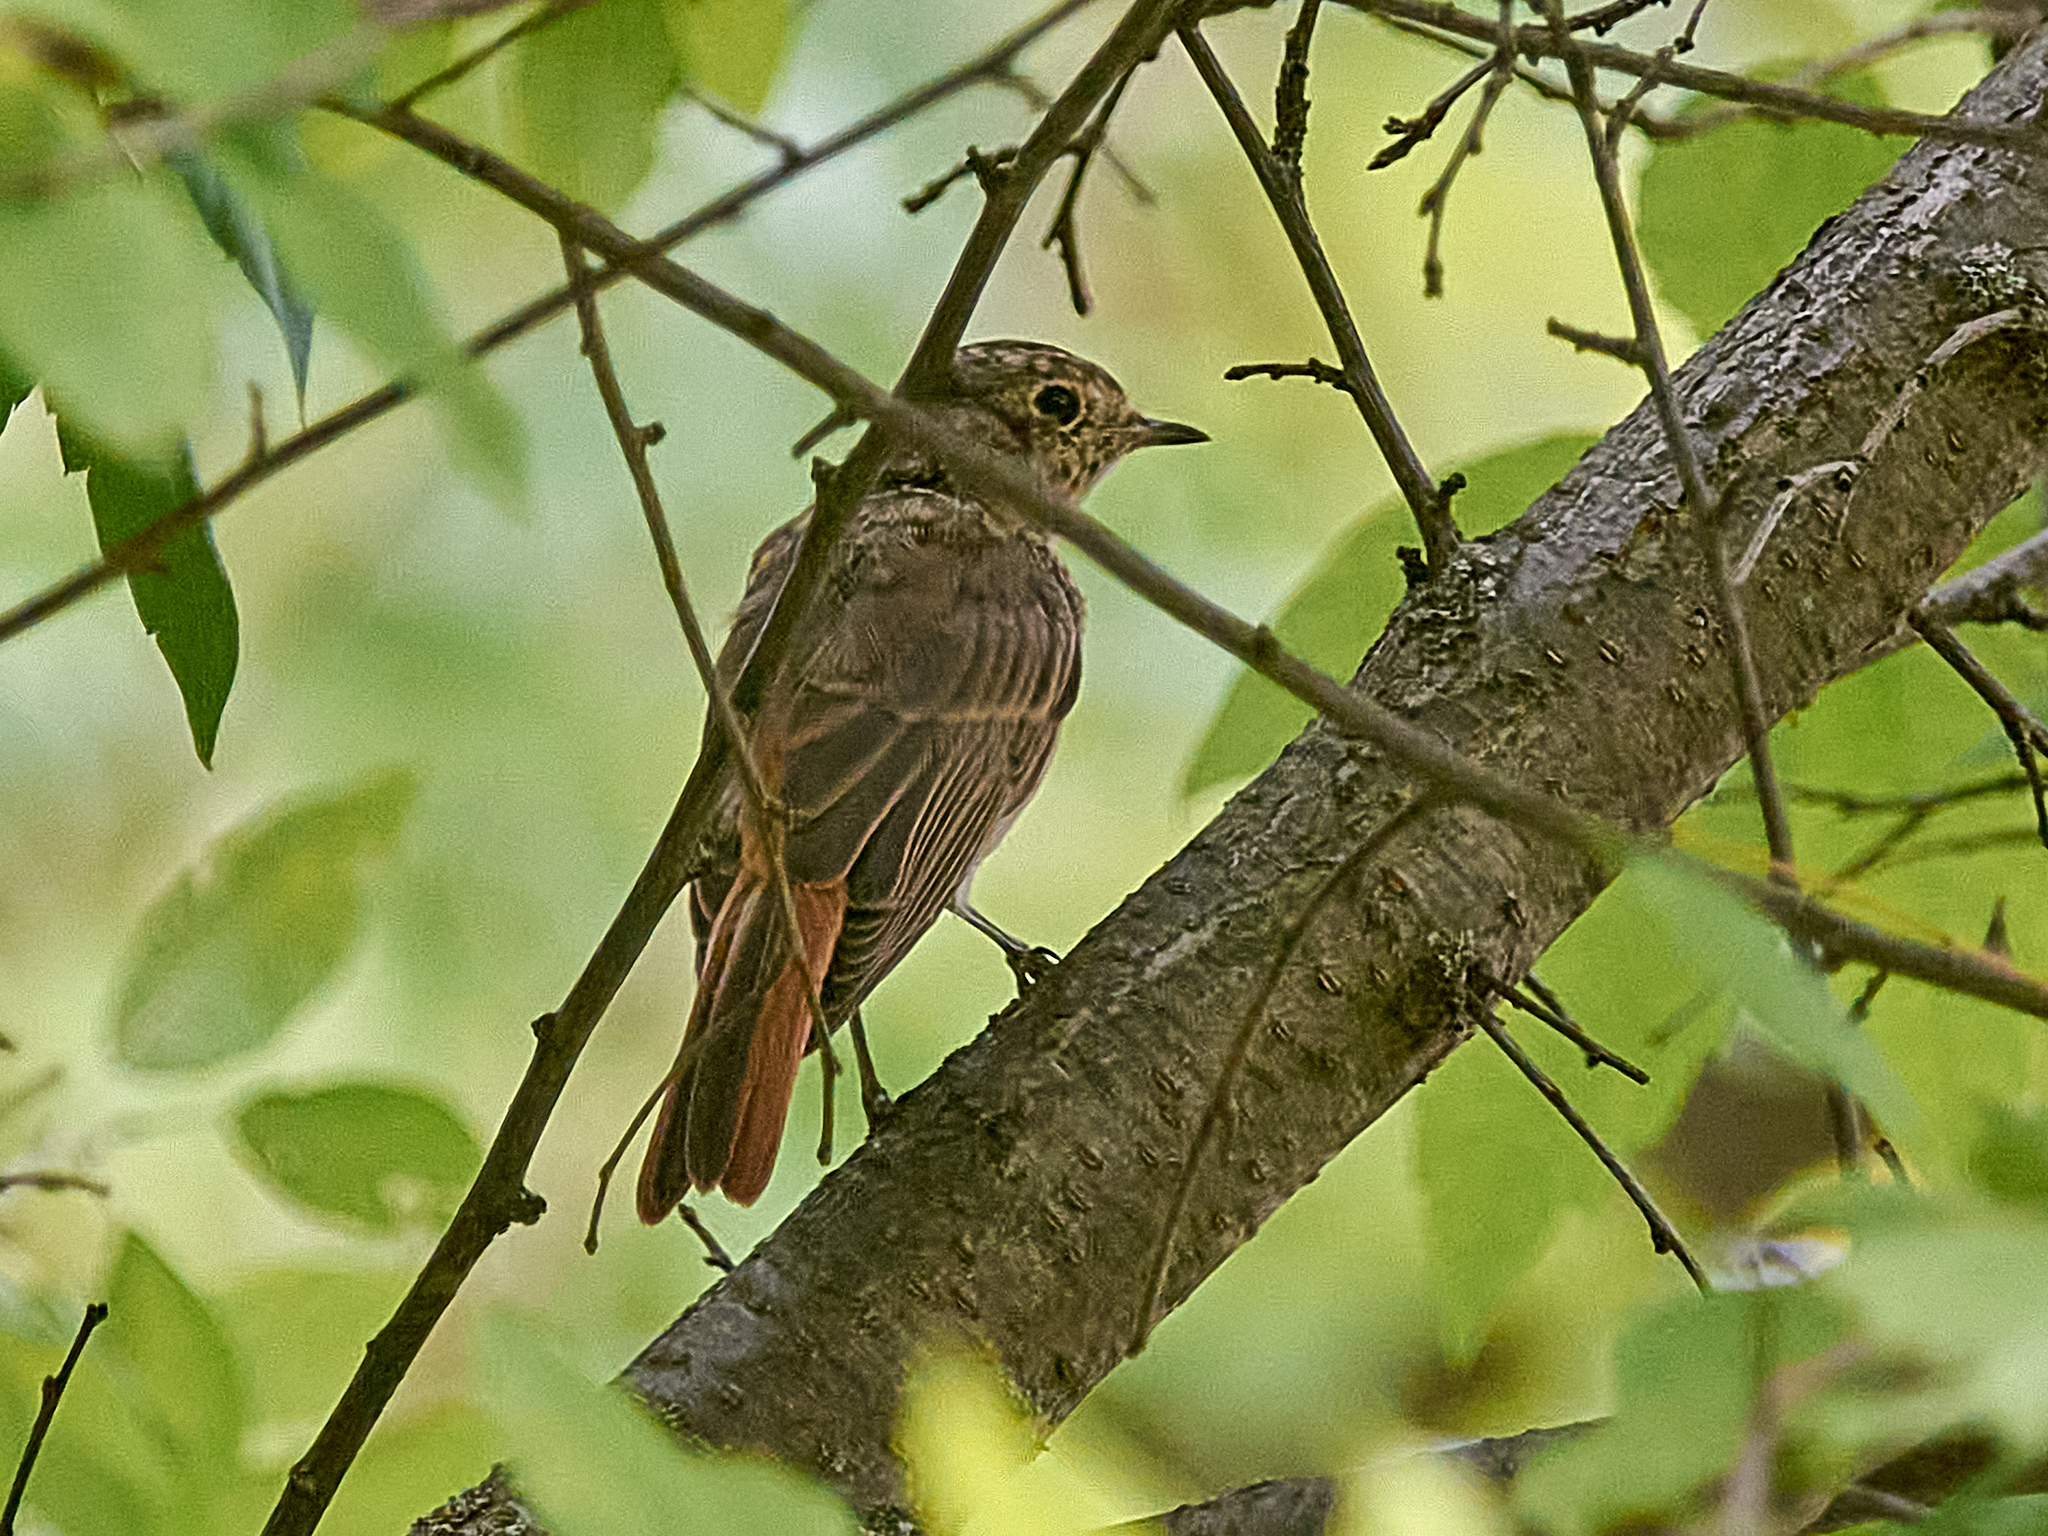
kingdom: Animalia
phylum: Chordata
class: Aves
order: Passeriformes
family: Muscicapidae
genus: Phoenicurus
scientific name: Phoenicurus phoenicurus
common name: Common redstart
